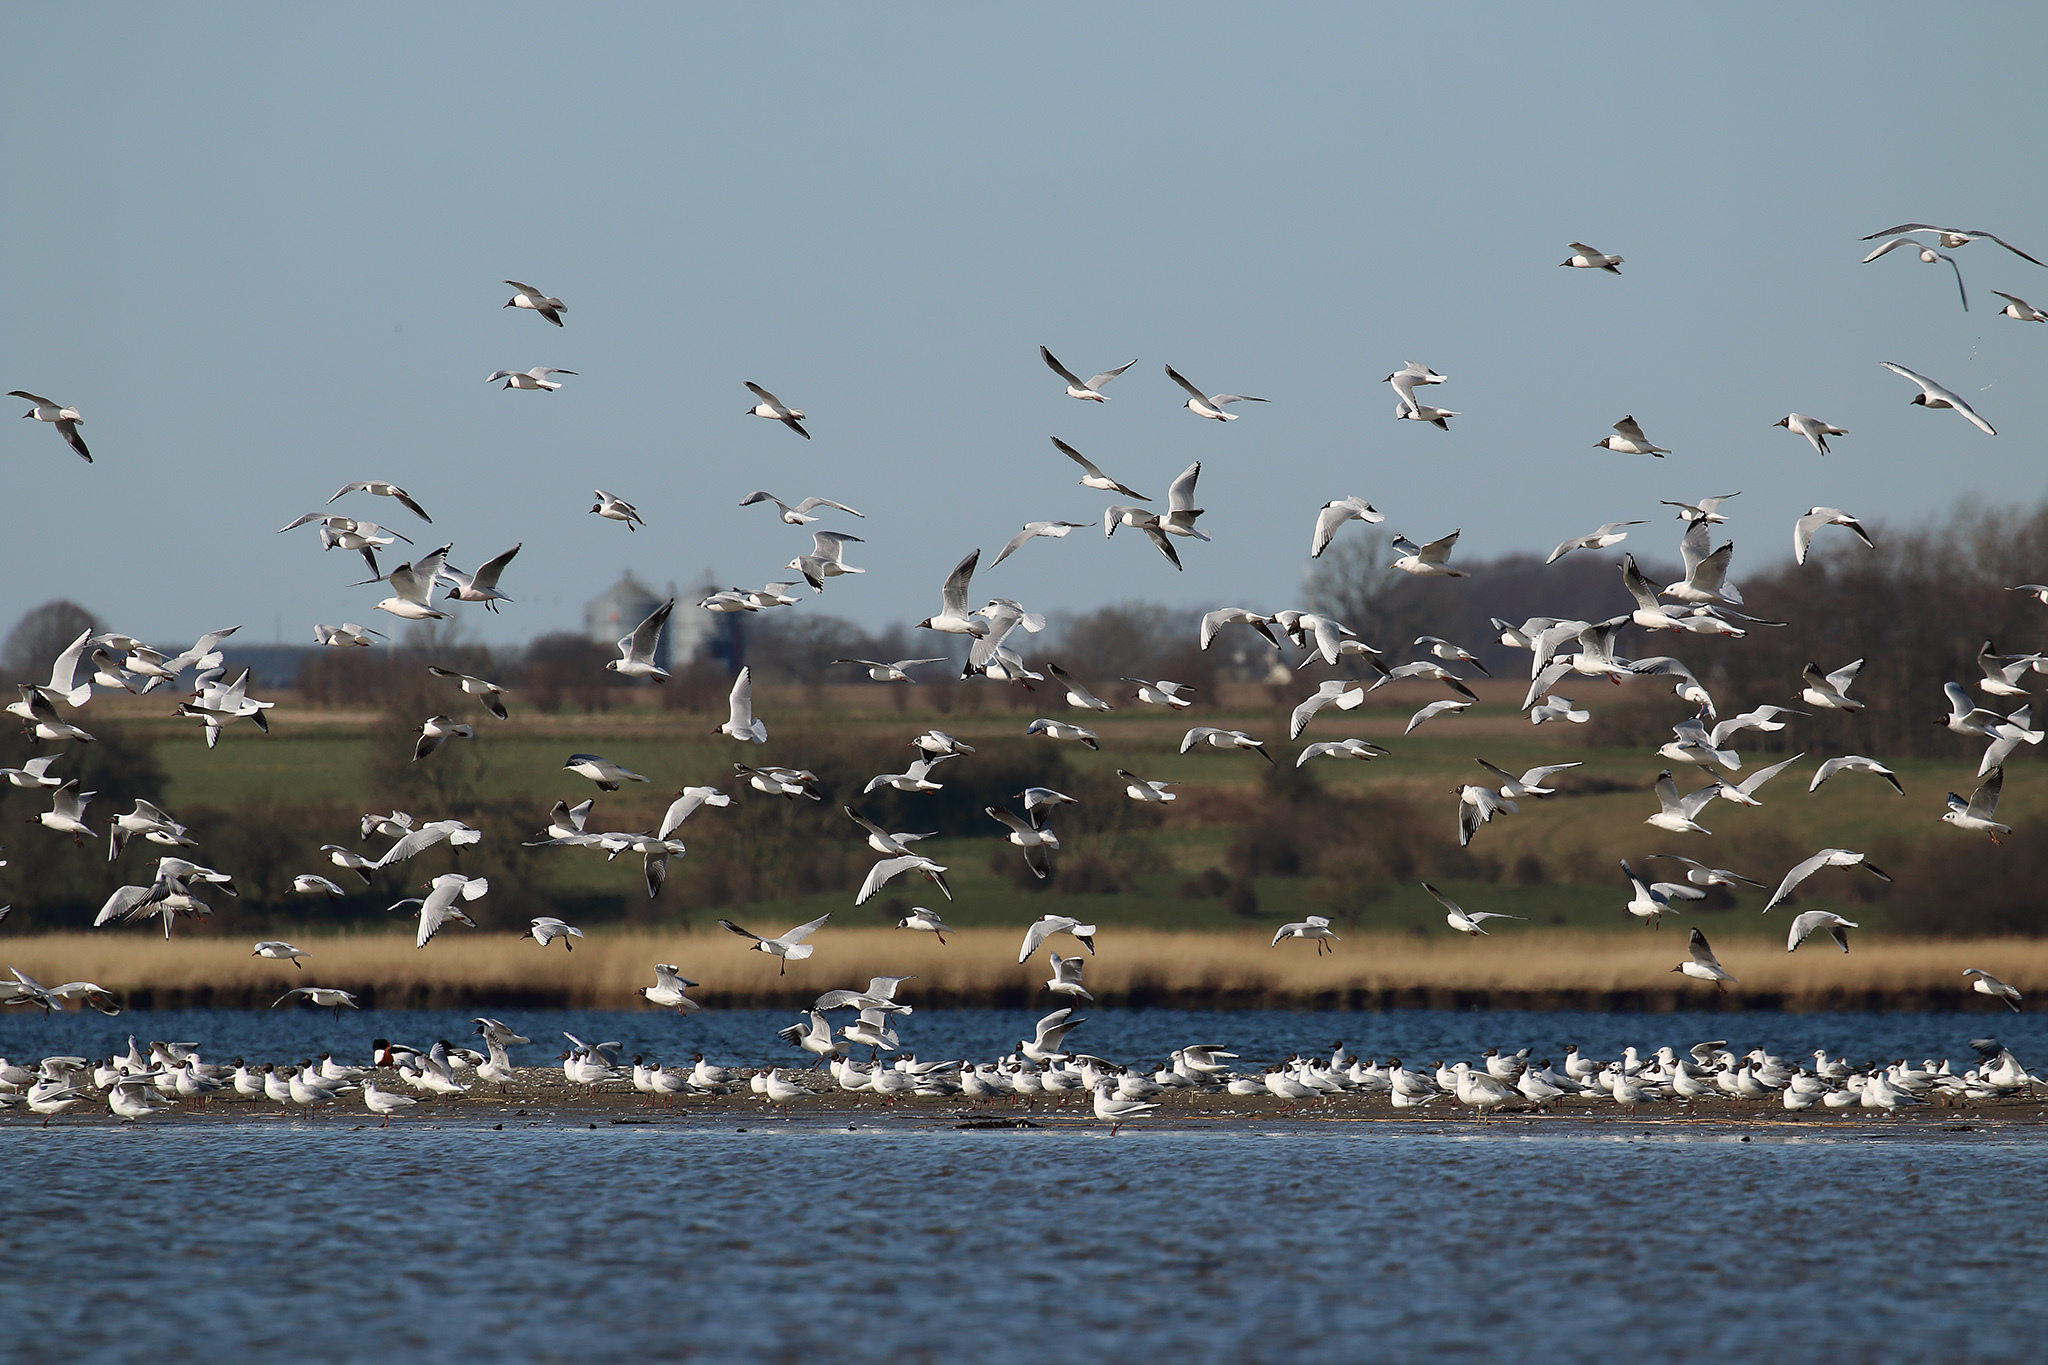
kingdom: Animalia
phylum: Chordata
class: Aves
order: Charadriiformes
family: Laridae
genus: Chroicocephalus
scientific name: Chroicocephalus ridibundus
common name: Black-headed gull
